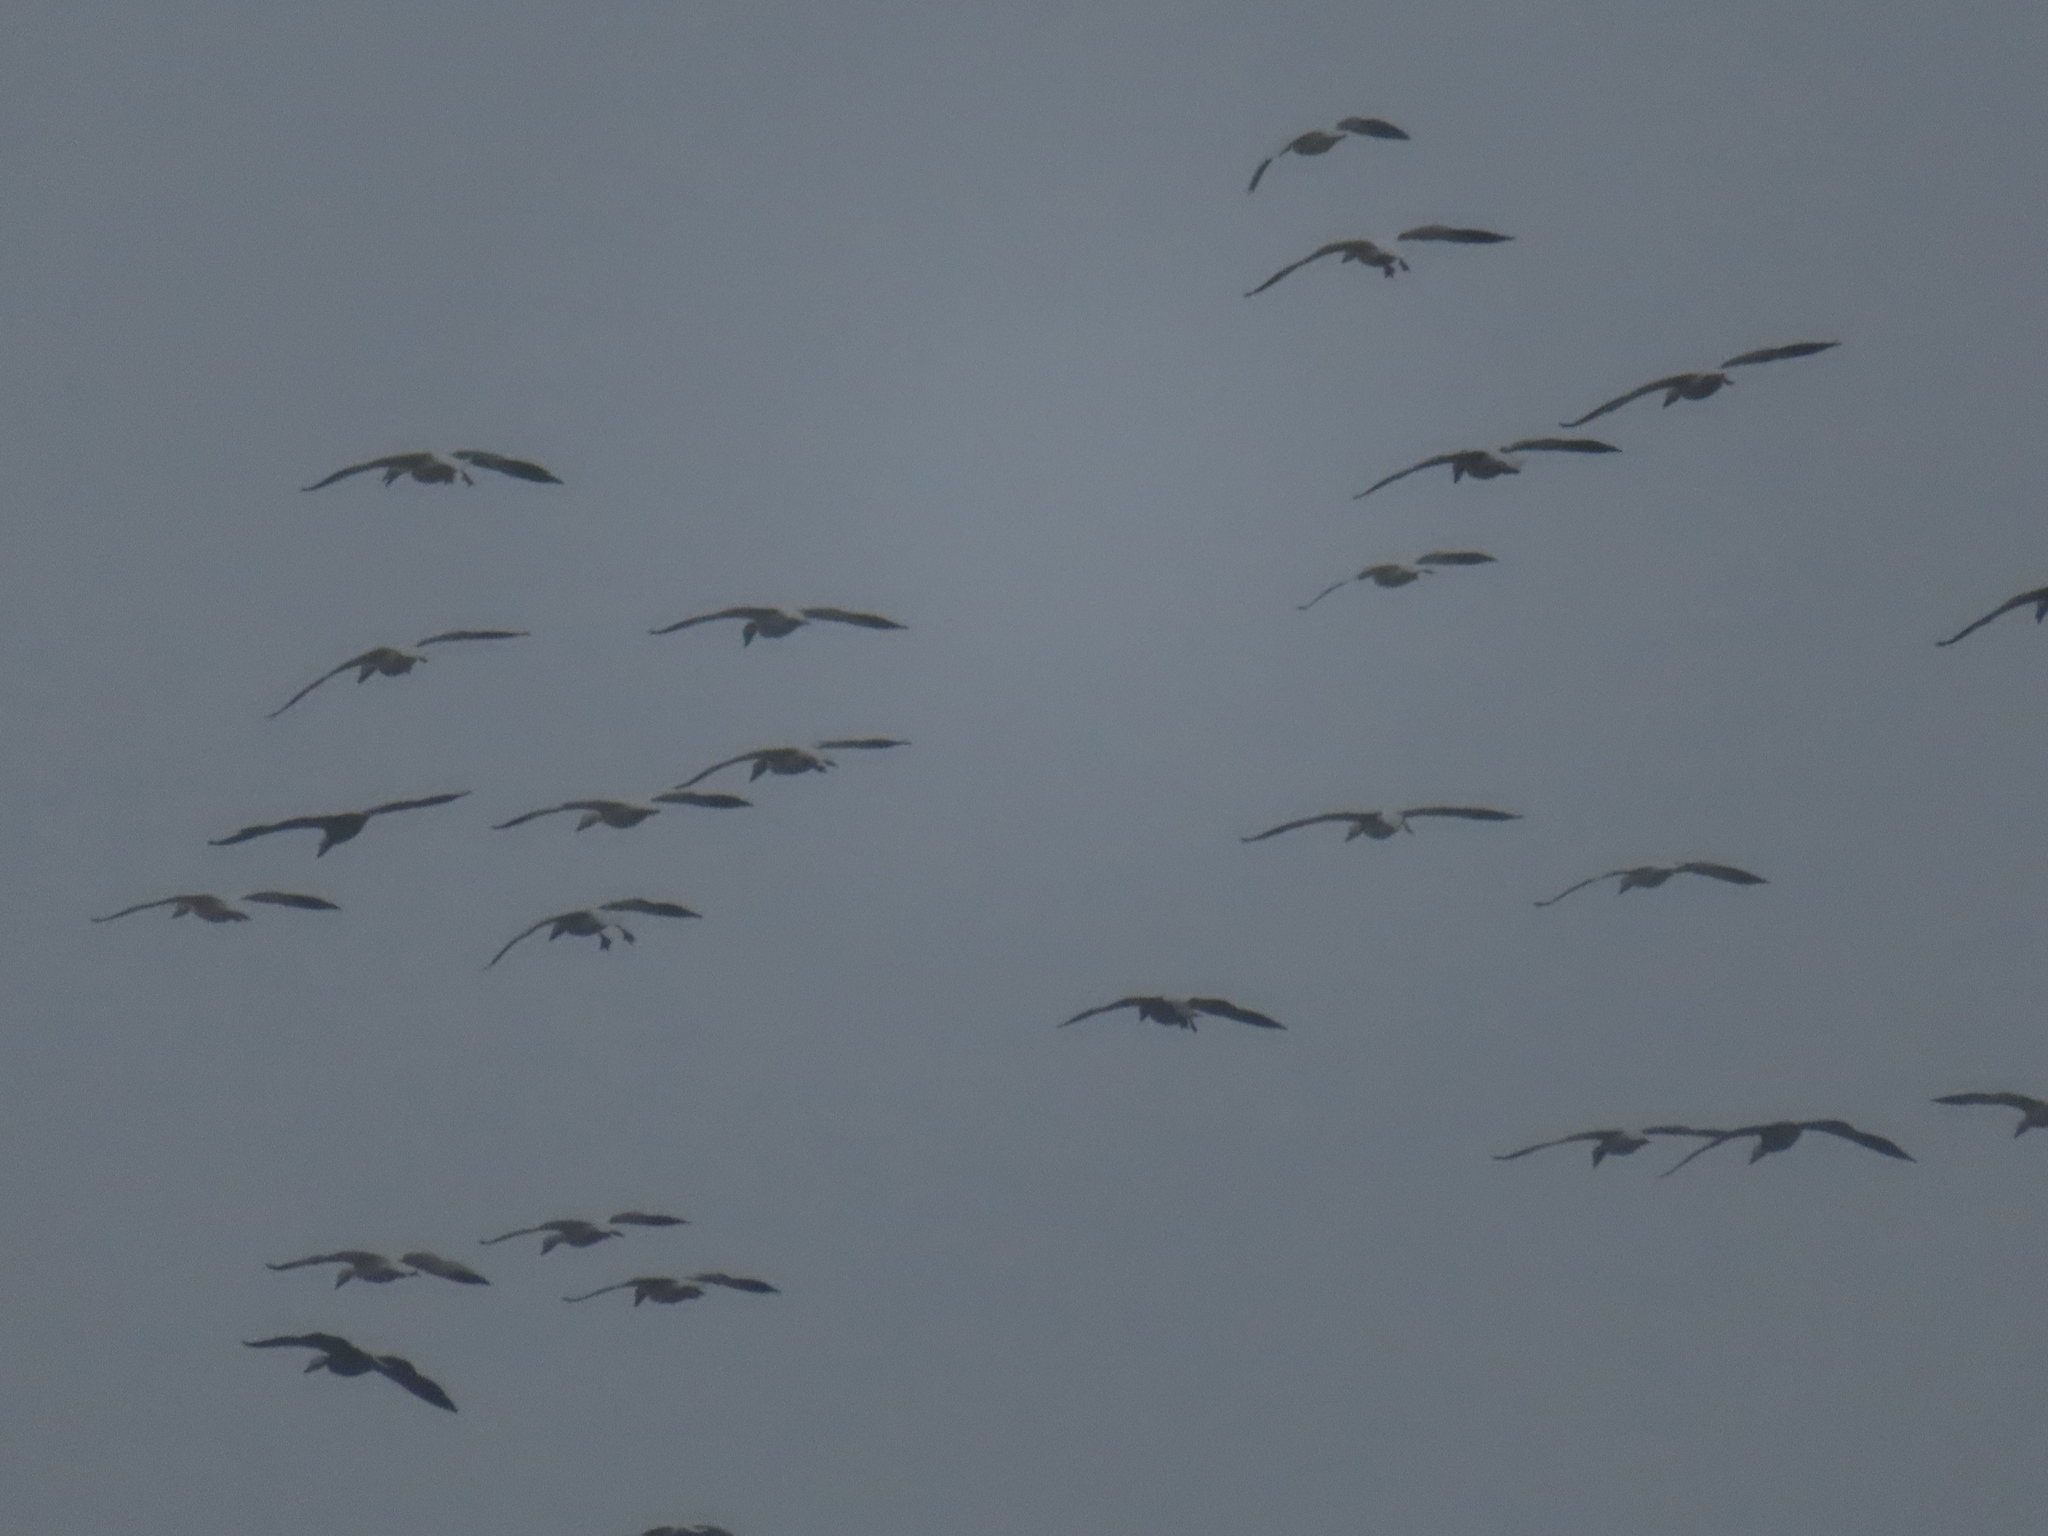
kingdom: Animalia
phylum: Chordata
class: Aves
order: Anseriformes
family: Anatidae
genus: Anser
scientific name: Anser caerulescens
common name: Snow goose
